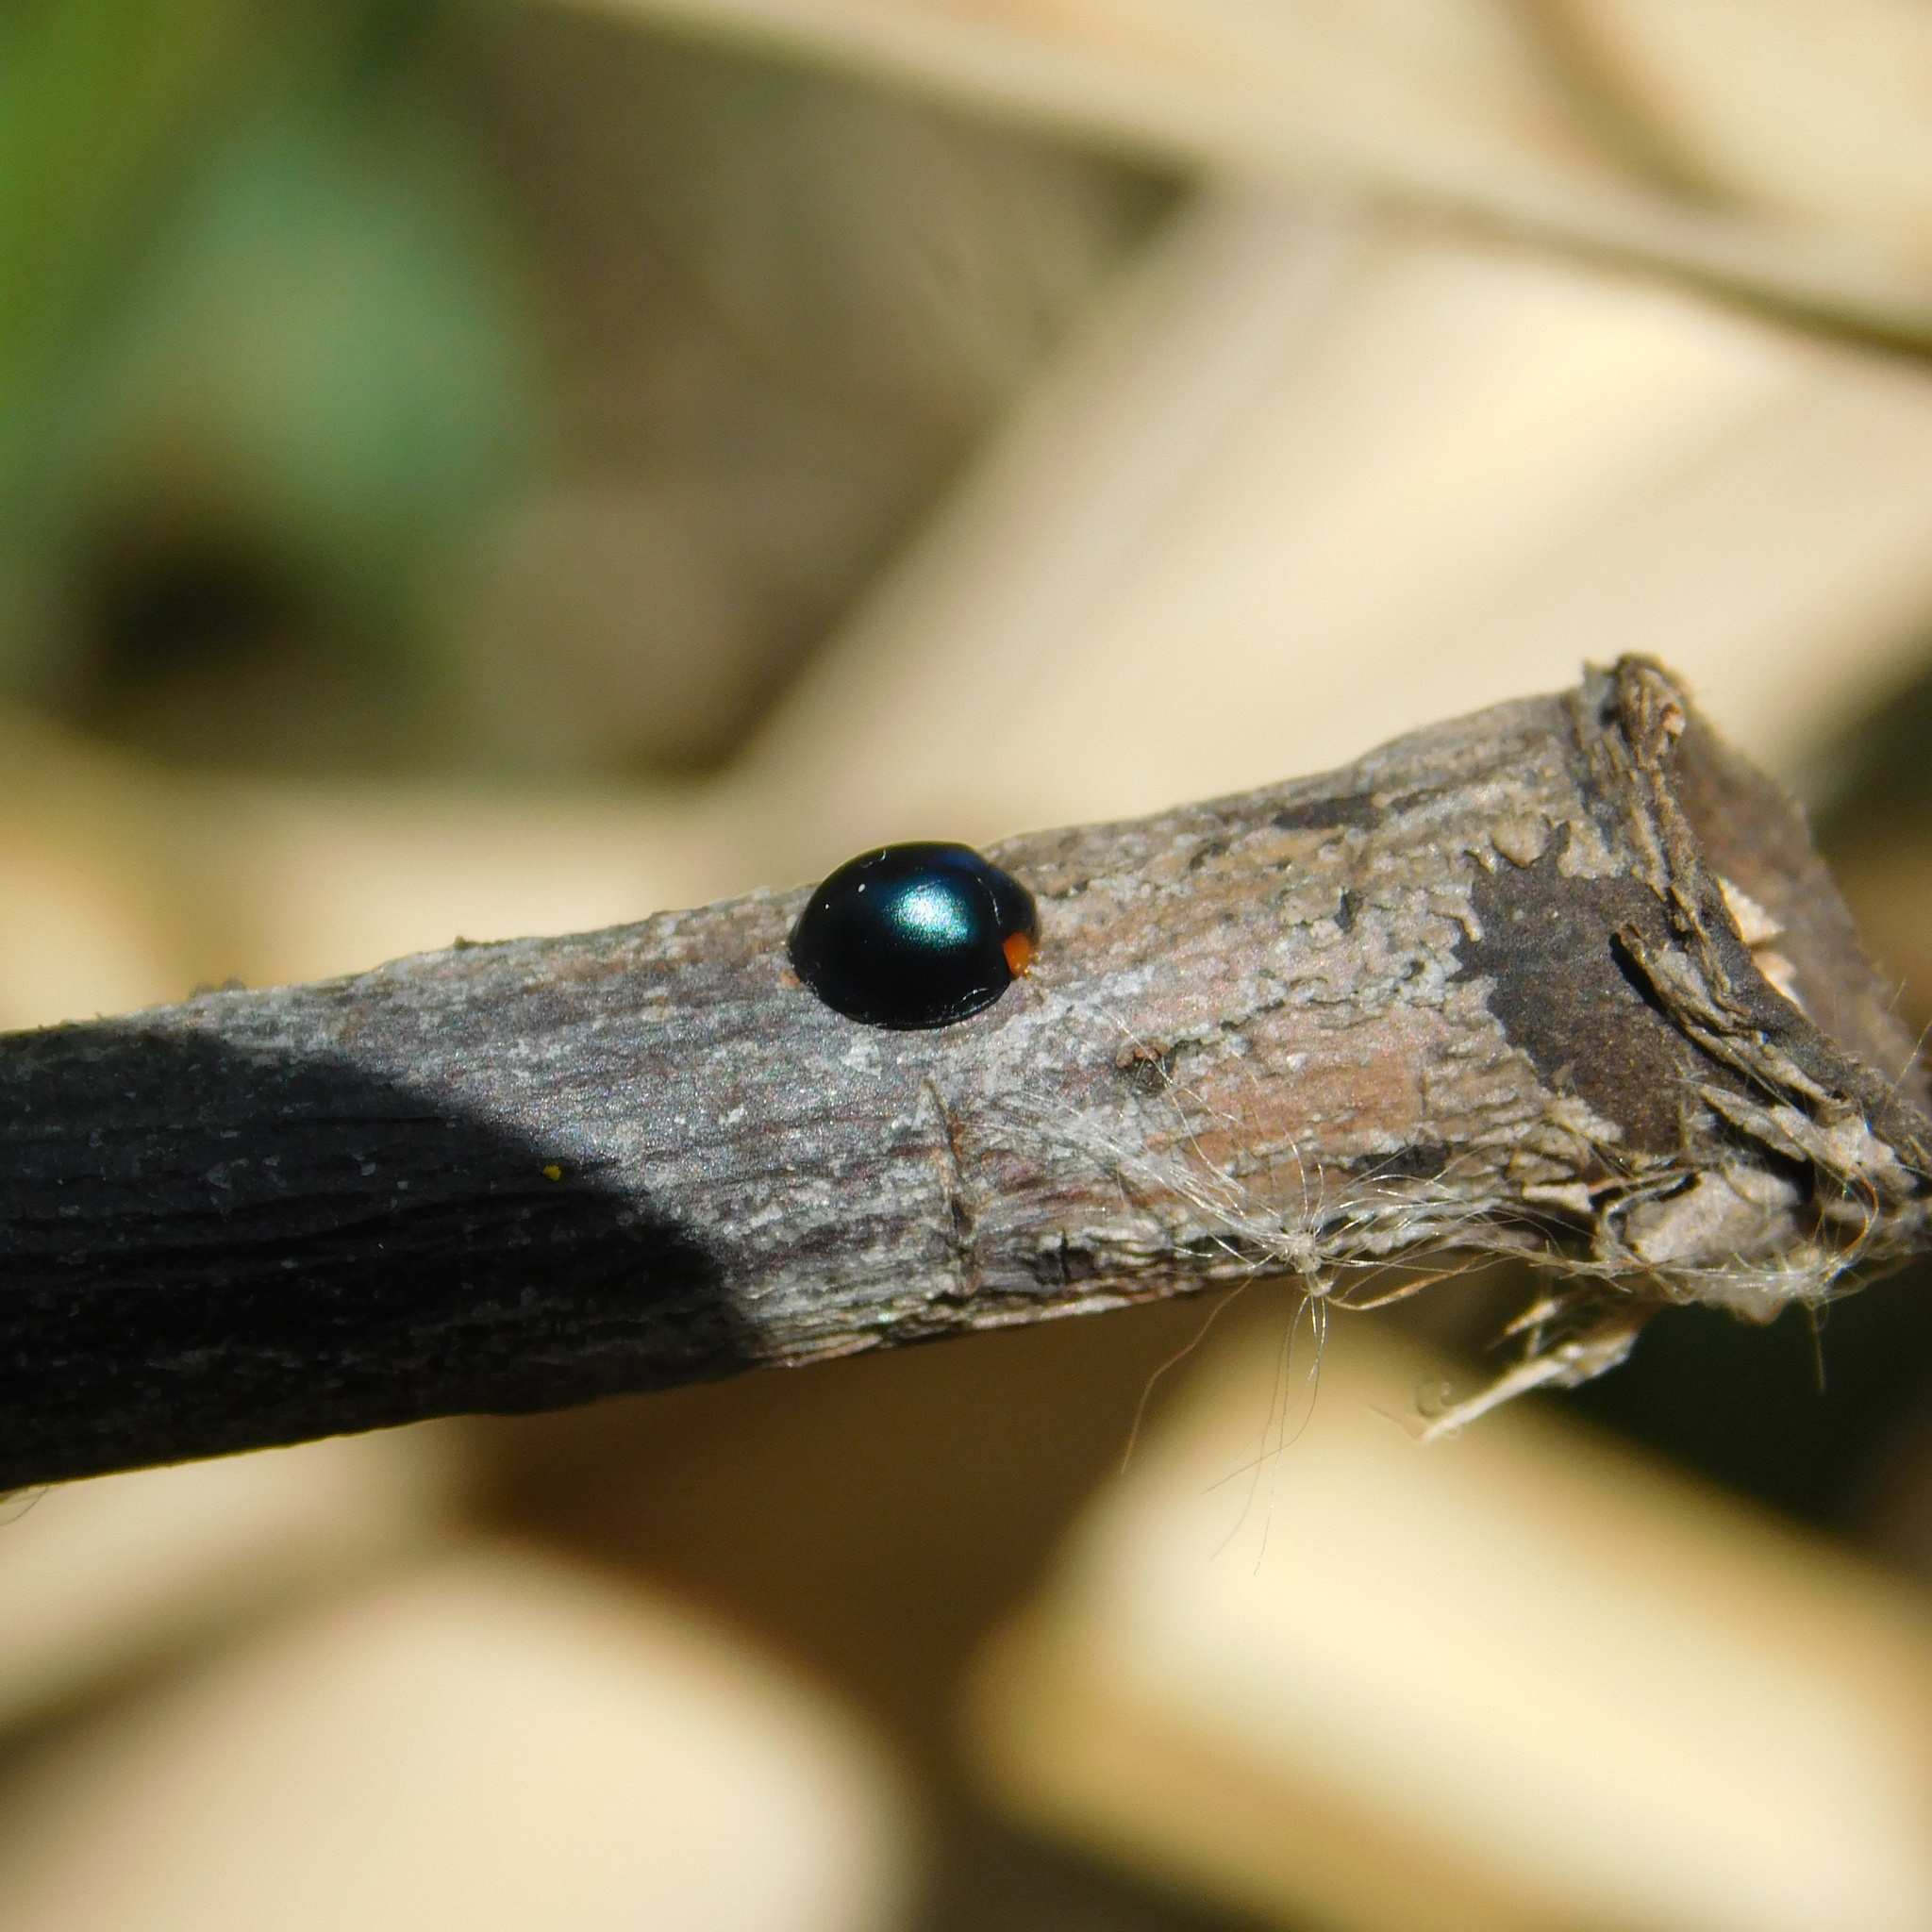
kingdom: Animalia
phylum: Arthropoda
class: Insecta
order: Coleoptera
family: Coccinellidae
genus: Curinus
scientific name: Curinus coeruleus
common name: Ladybird beetle
